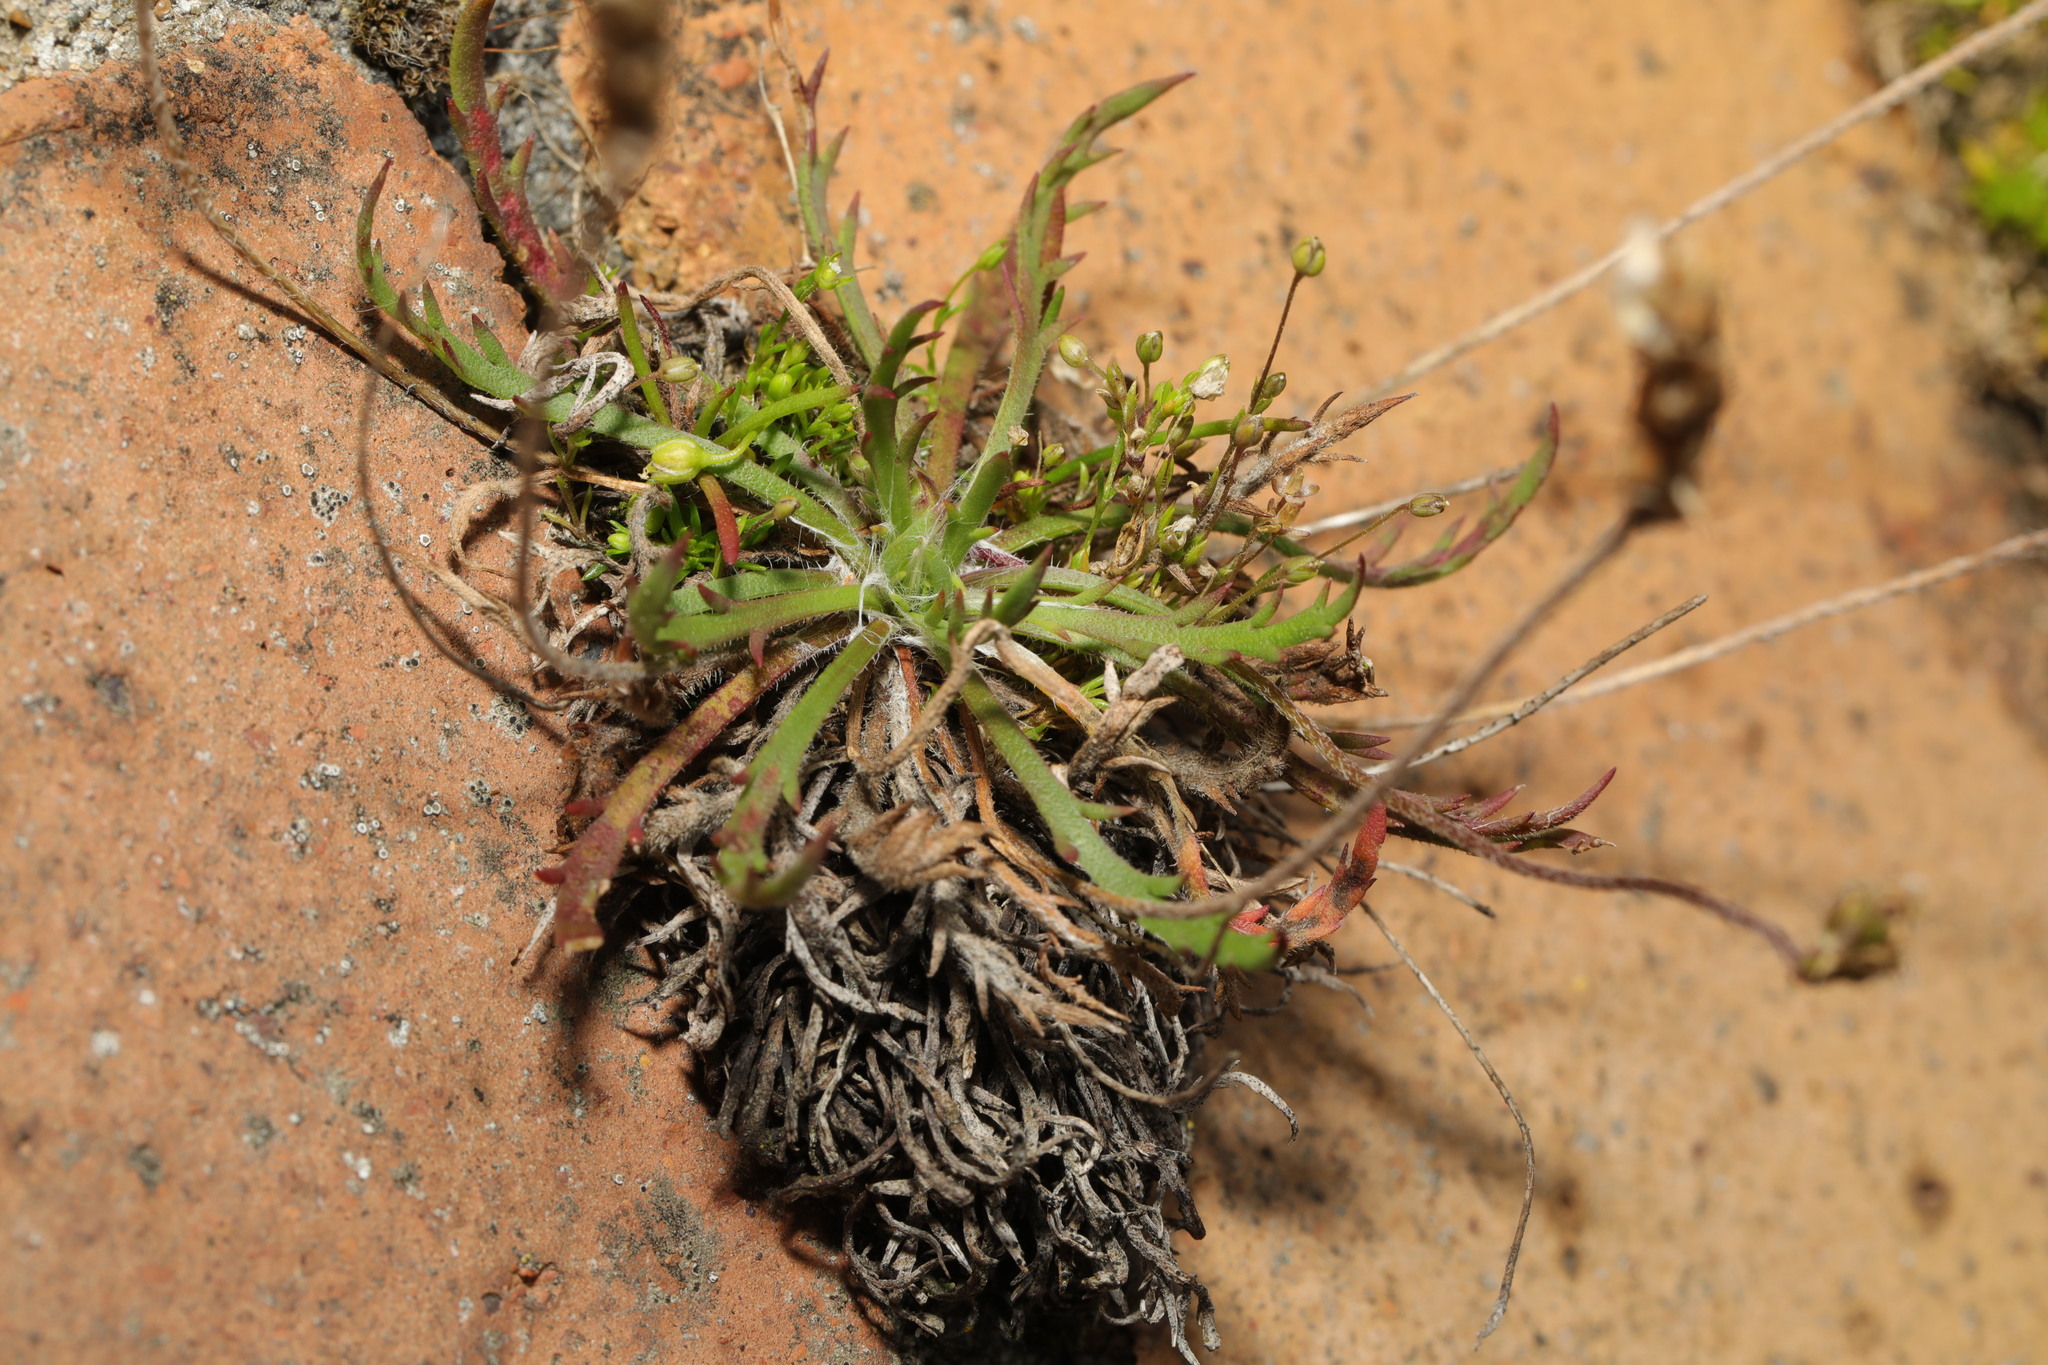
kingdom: Plantae
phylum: Tracheophyta
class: Magnoliopsida
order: Lamiales
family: Plantaginaceae
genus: Plantago
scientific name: Plantago coronopus
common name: Buck's-horn plantain
